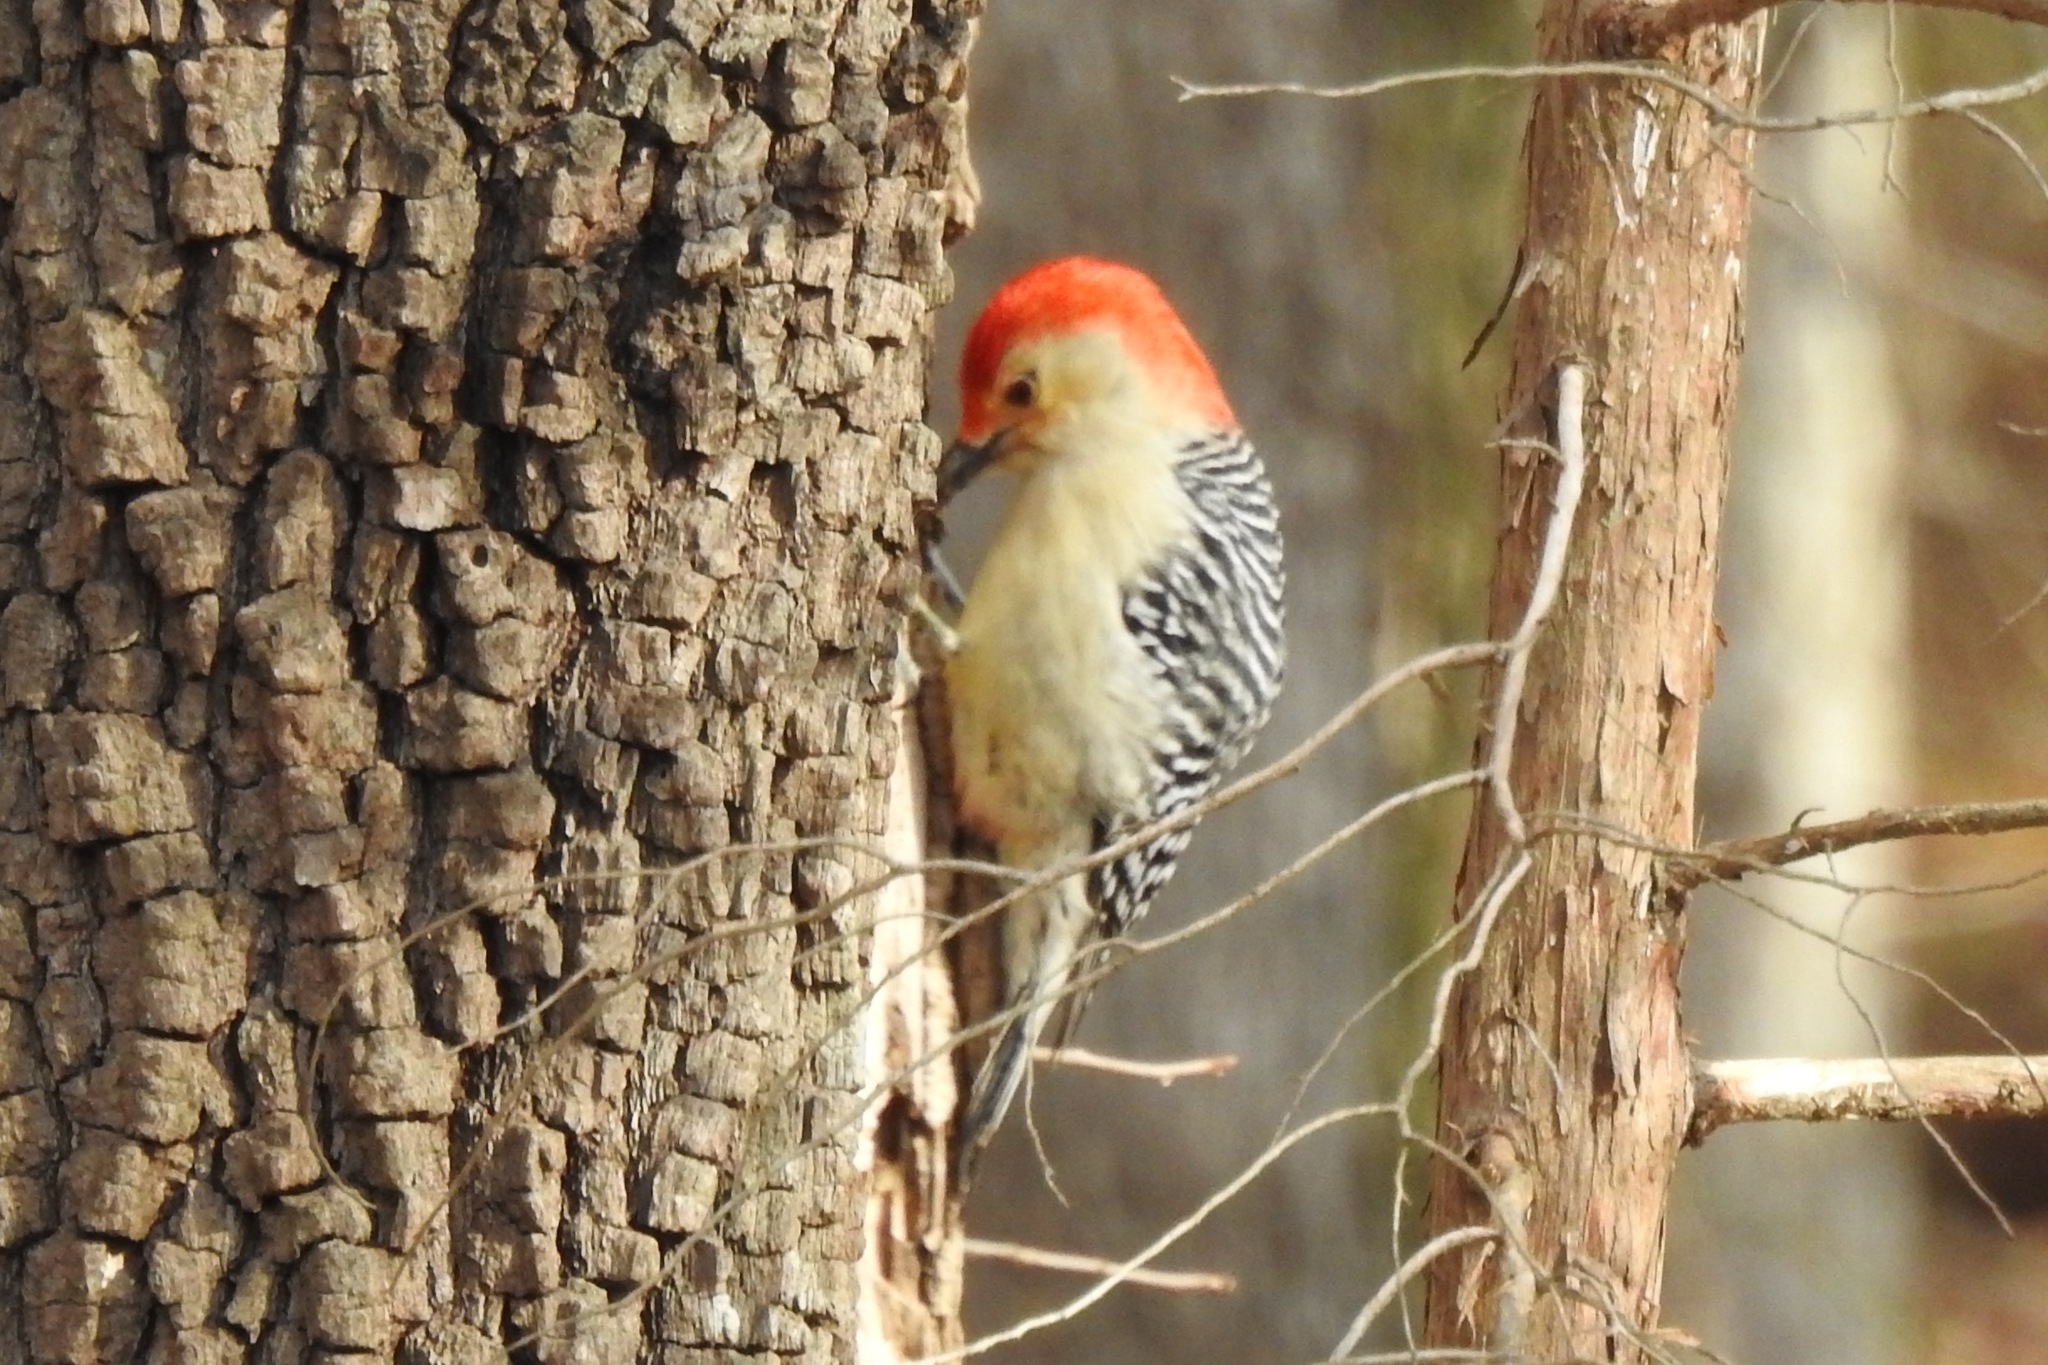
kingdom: Animalia
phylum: Chordata
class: Aves
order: Piciformes
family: Picidae
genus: Melanerpes
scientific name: Melanerpes carolinus
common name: Red-bellied woodpecker
